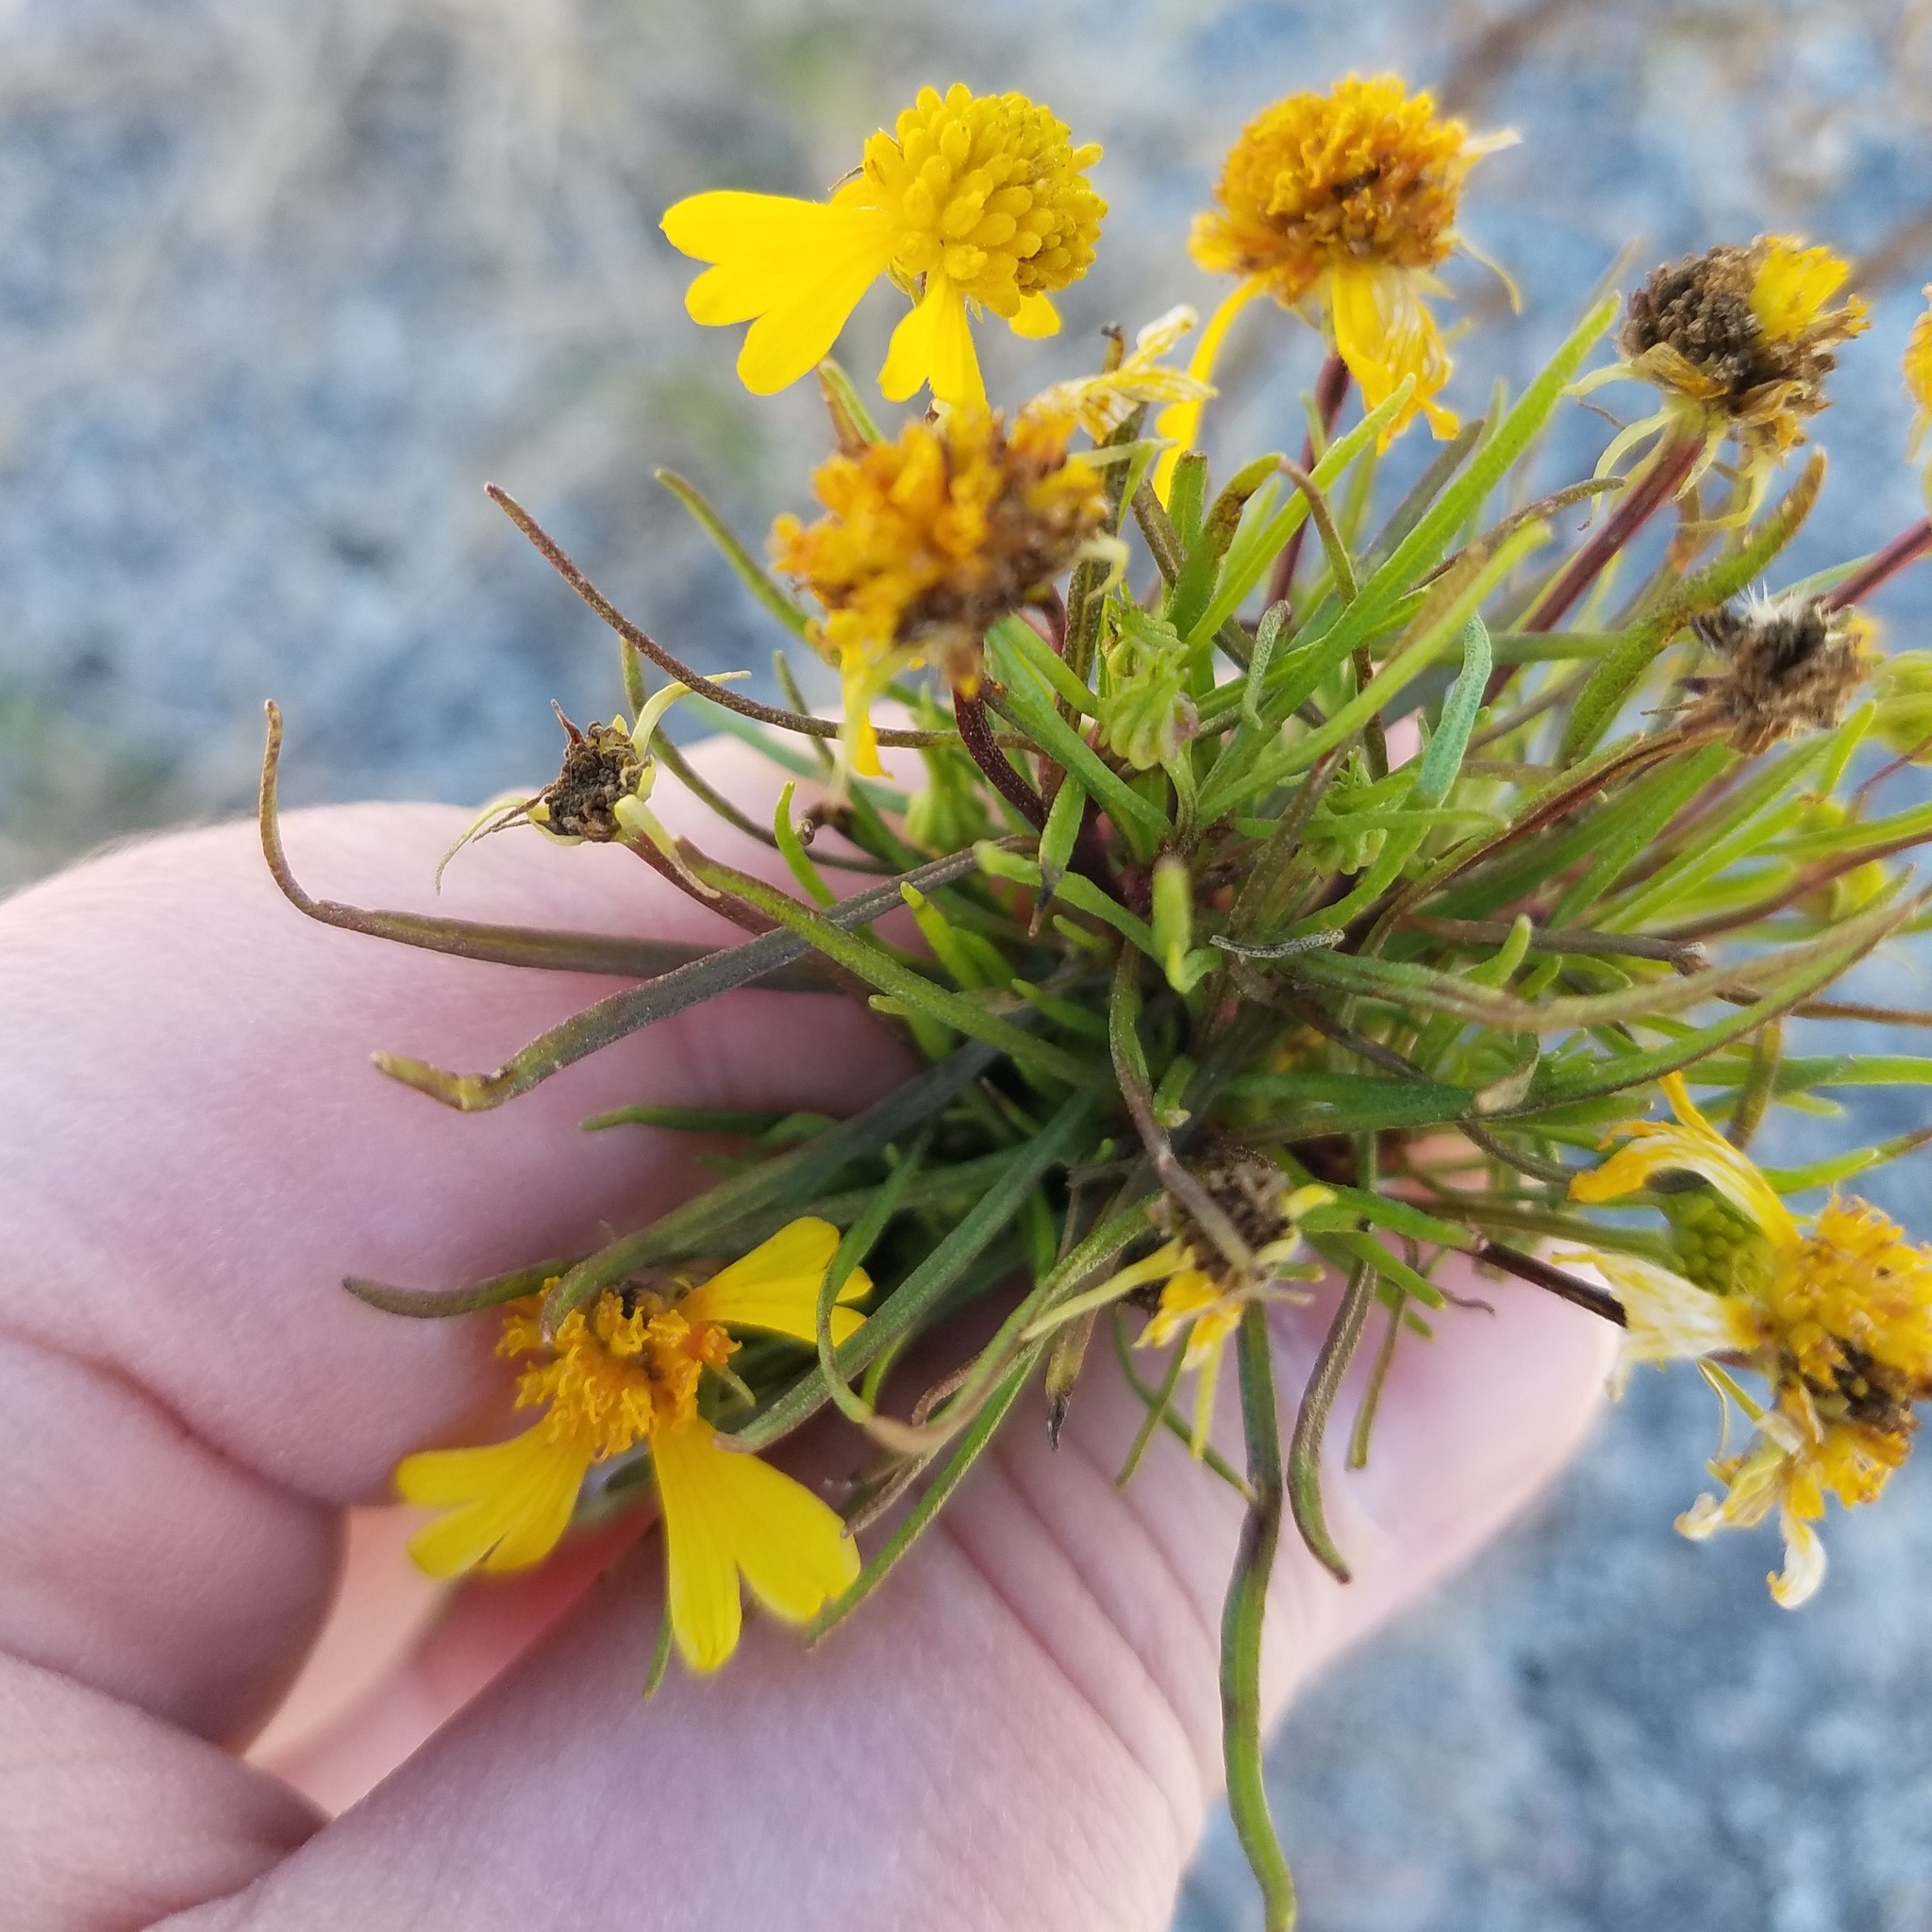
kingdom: Plantae
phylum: Tracheophyta
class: Magnoliopsida
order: Asterales
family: Asteraceae
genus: Helenium
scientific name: Helenium amarum
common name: Bitter sneezeweed
